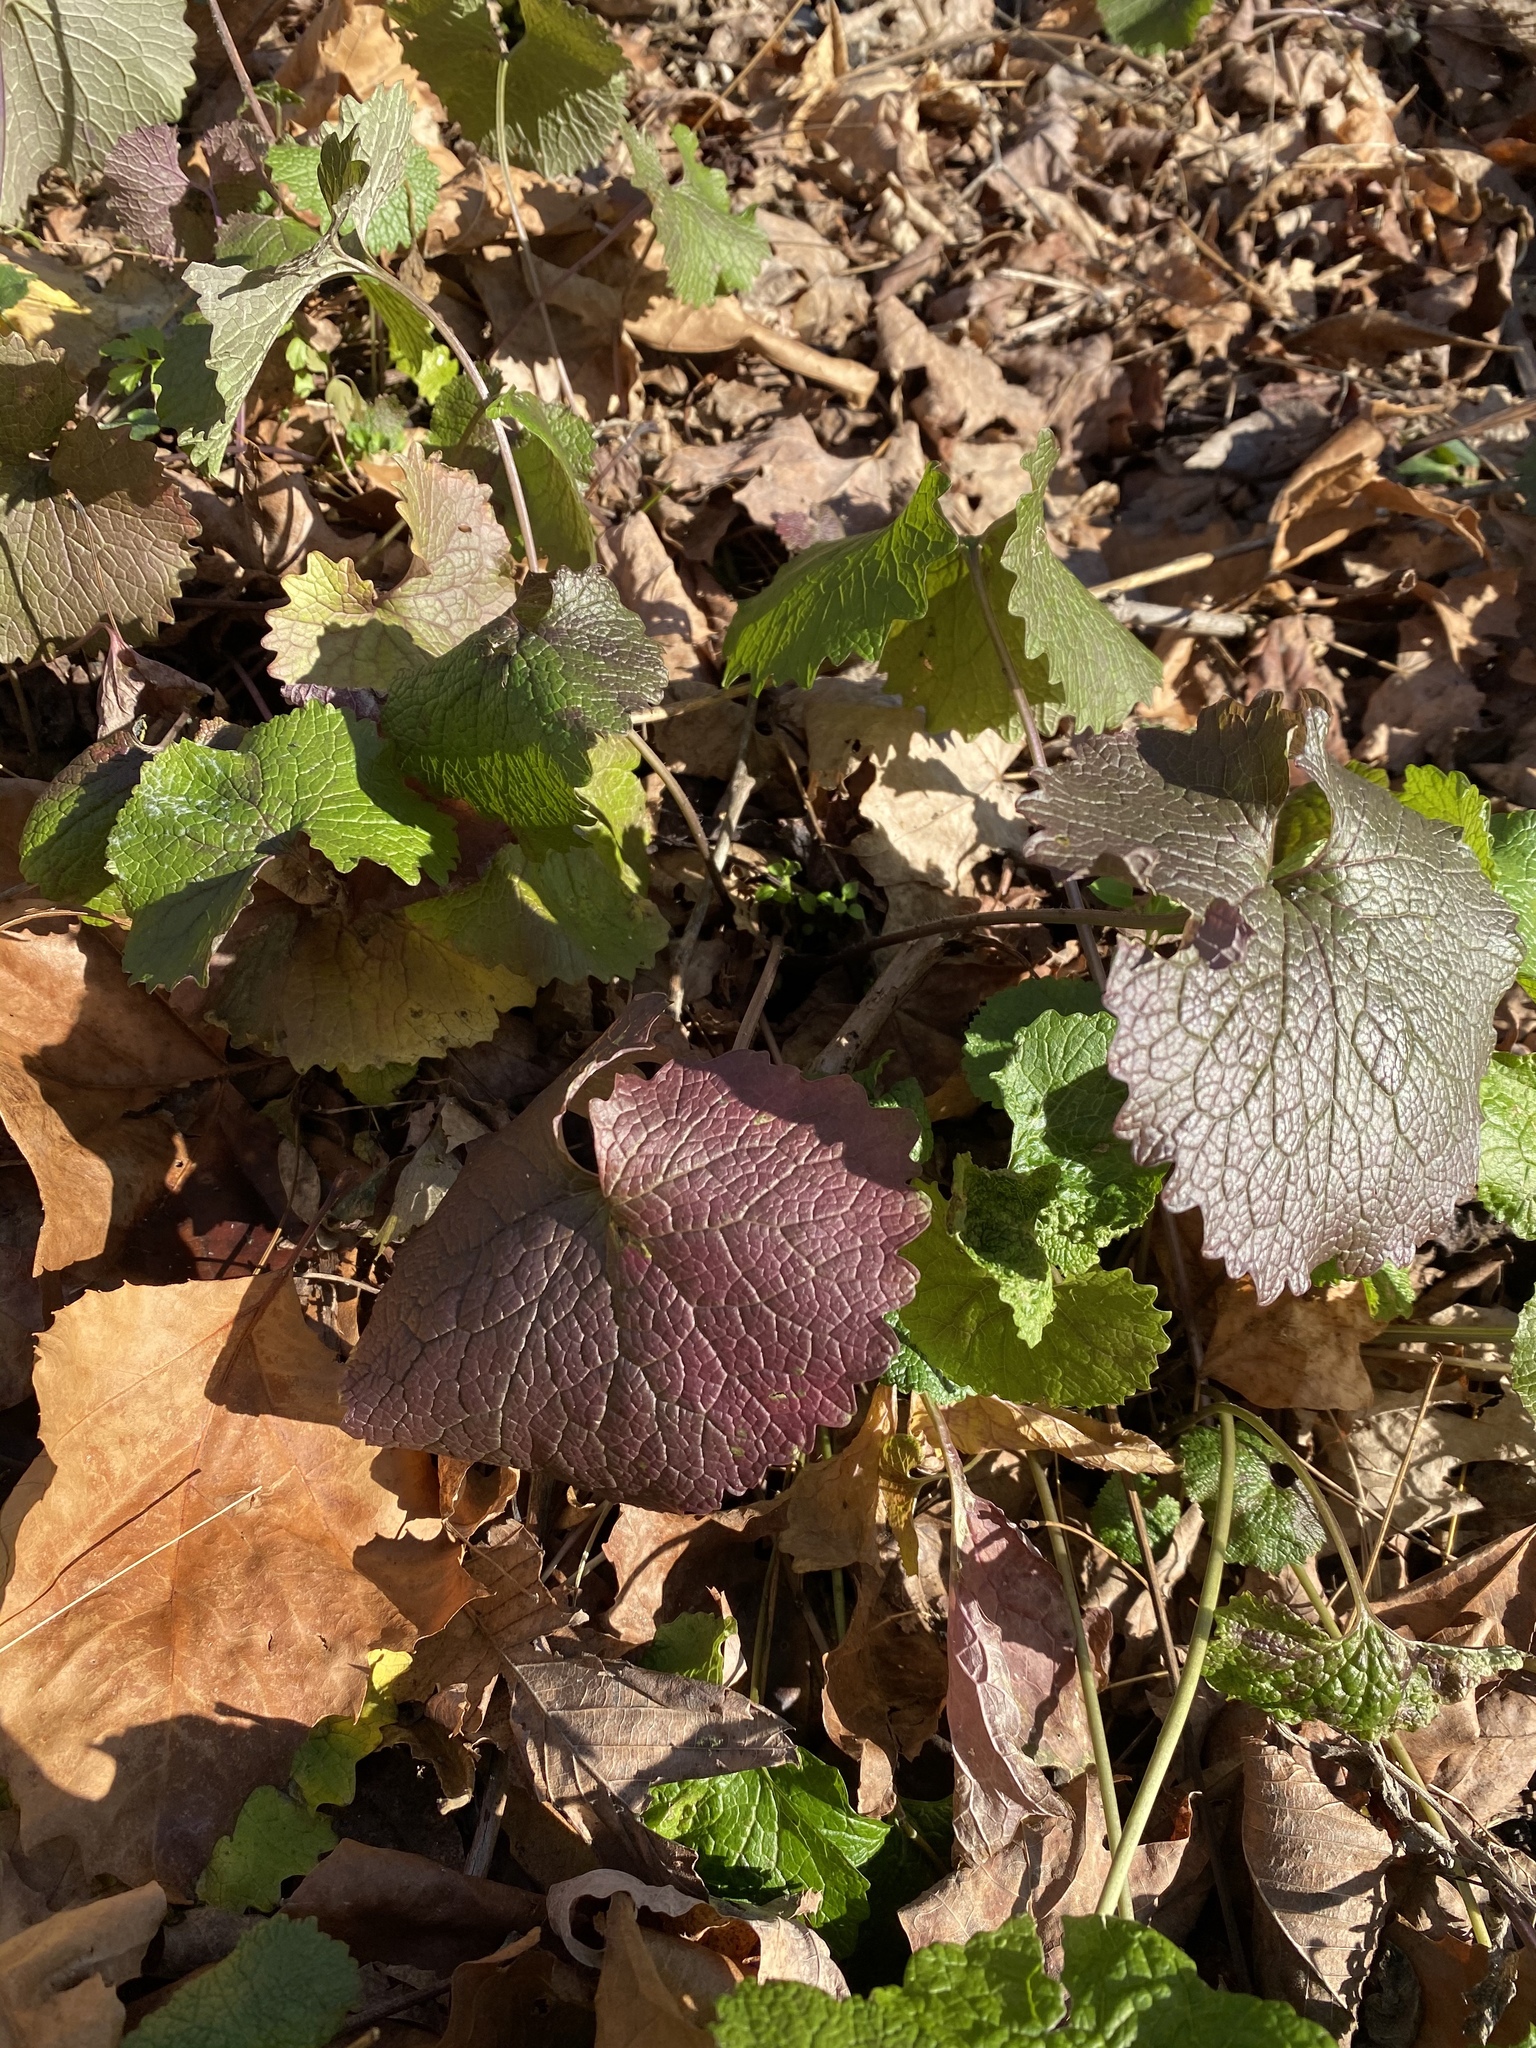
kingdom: Plantae
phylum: Tracheophyta
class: Magnoliopsida
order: Brassicales
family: Brassicaceae
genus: Alliaria
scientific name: Alliaria petiolata
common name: Garlic mustard
